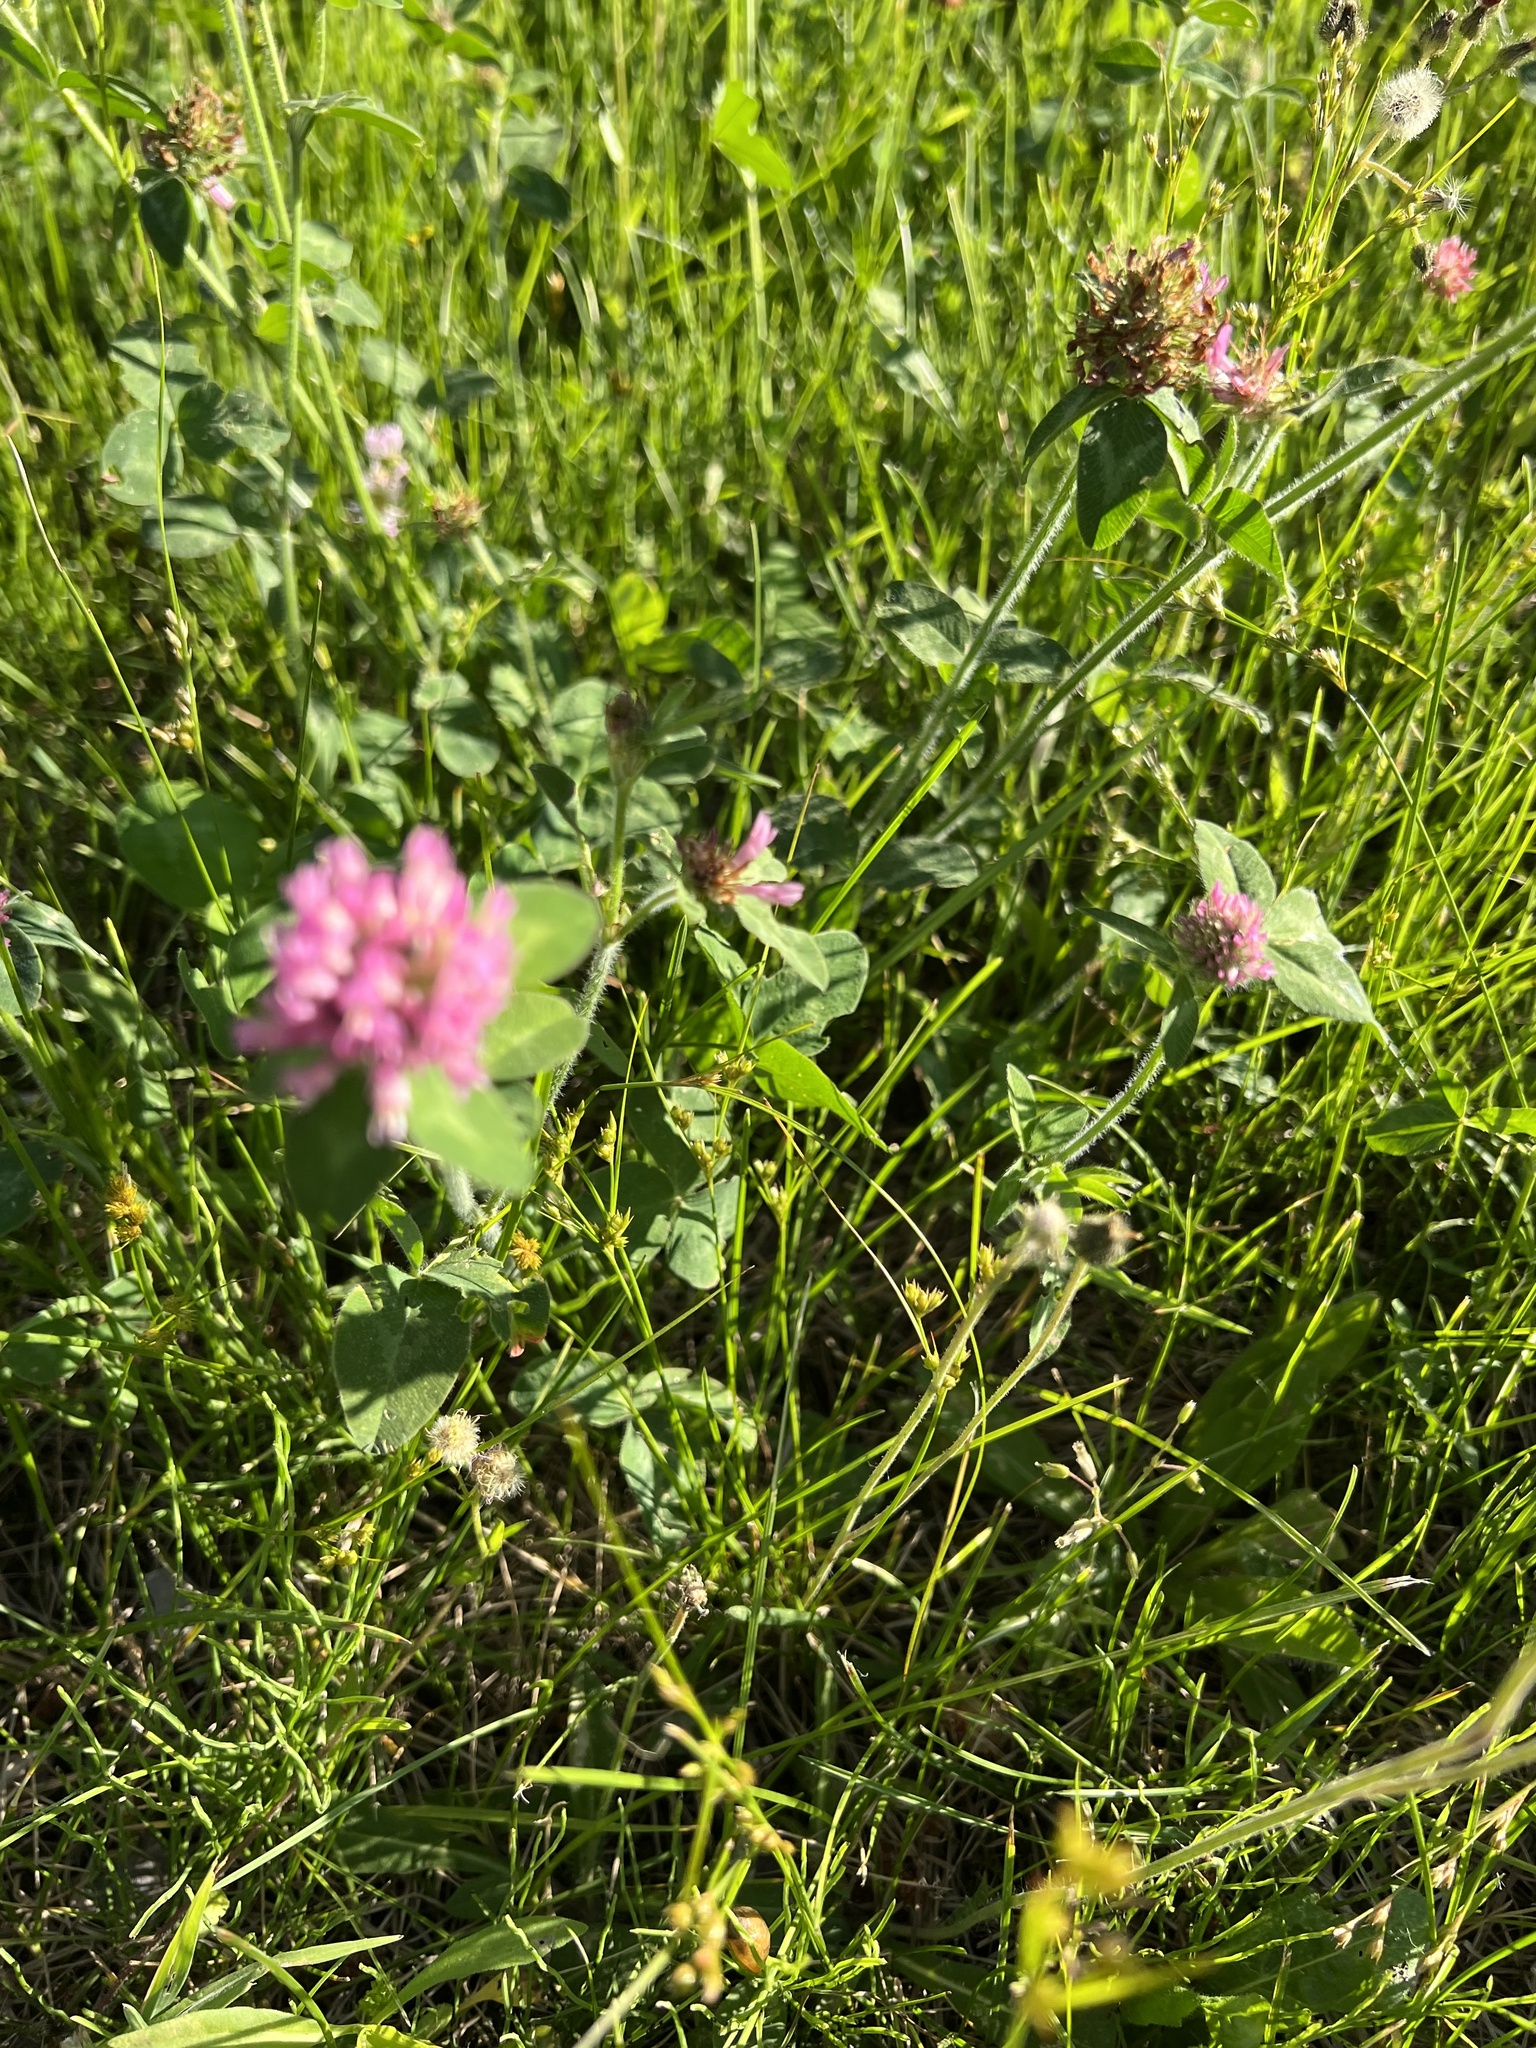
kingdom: Plantae
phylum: Tracheophyta
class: Magnoliopsida
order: Fabales
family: Fabaceae
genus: Trifolium
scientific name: Trifolium pratense
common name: Red clover
